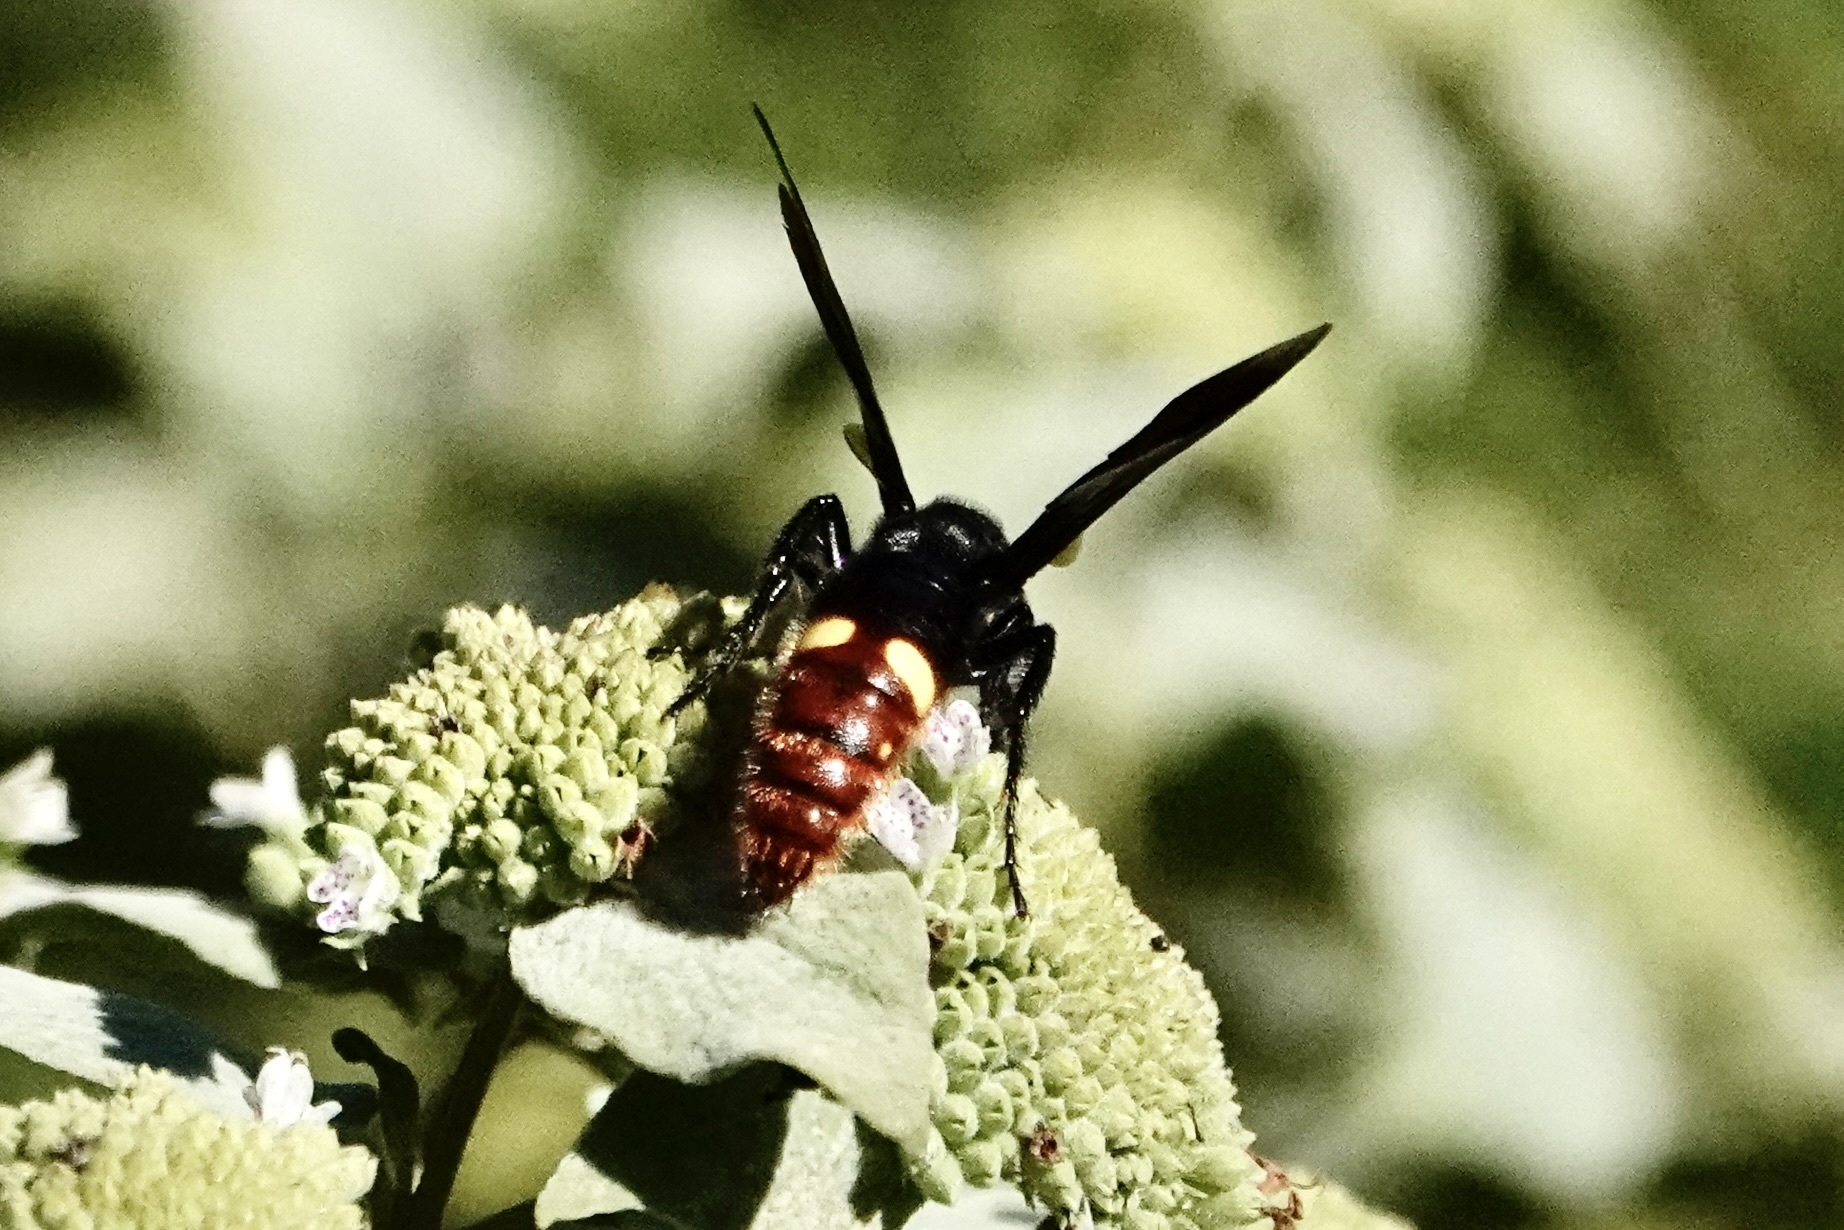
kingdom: Animalia
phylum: Arthropoda
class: Insecta
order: Hymenoptera
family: Scoliidae
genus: Scolia
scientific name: Scolia dubia
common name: Blue-winged scoliid wasp
